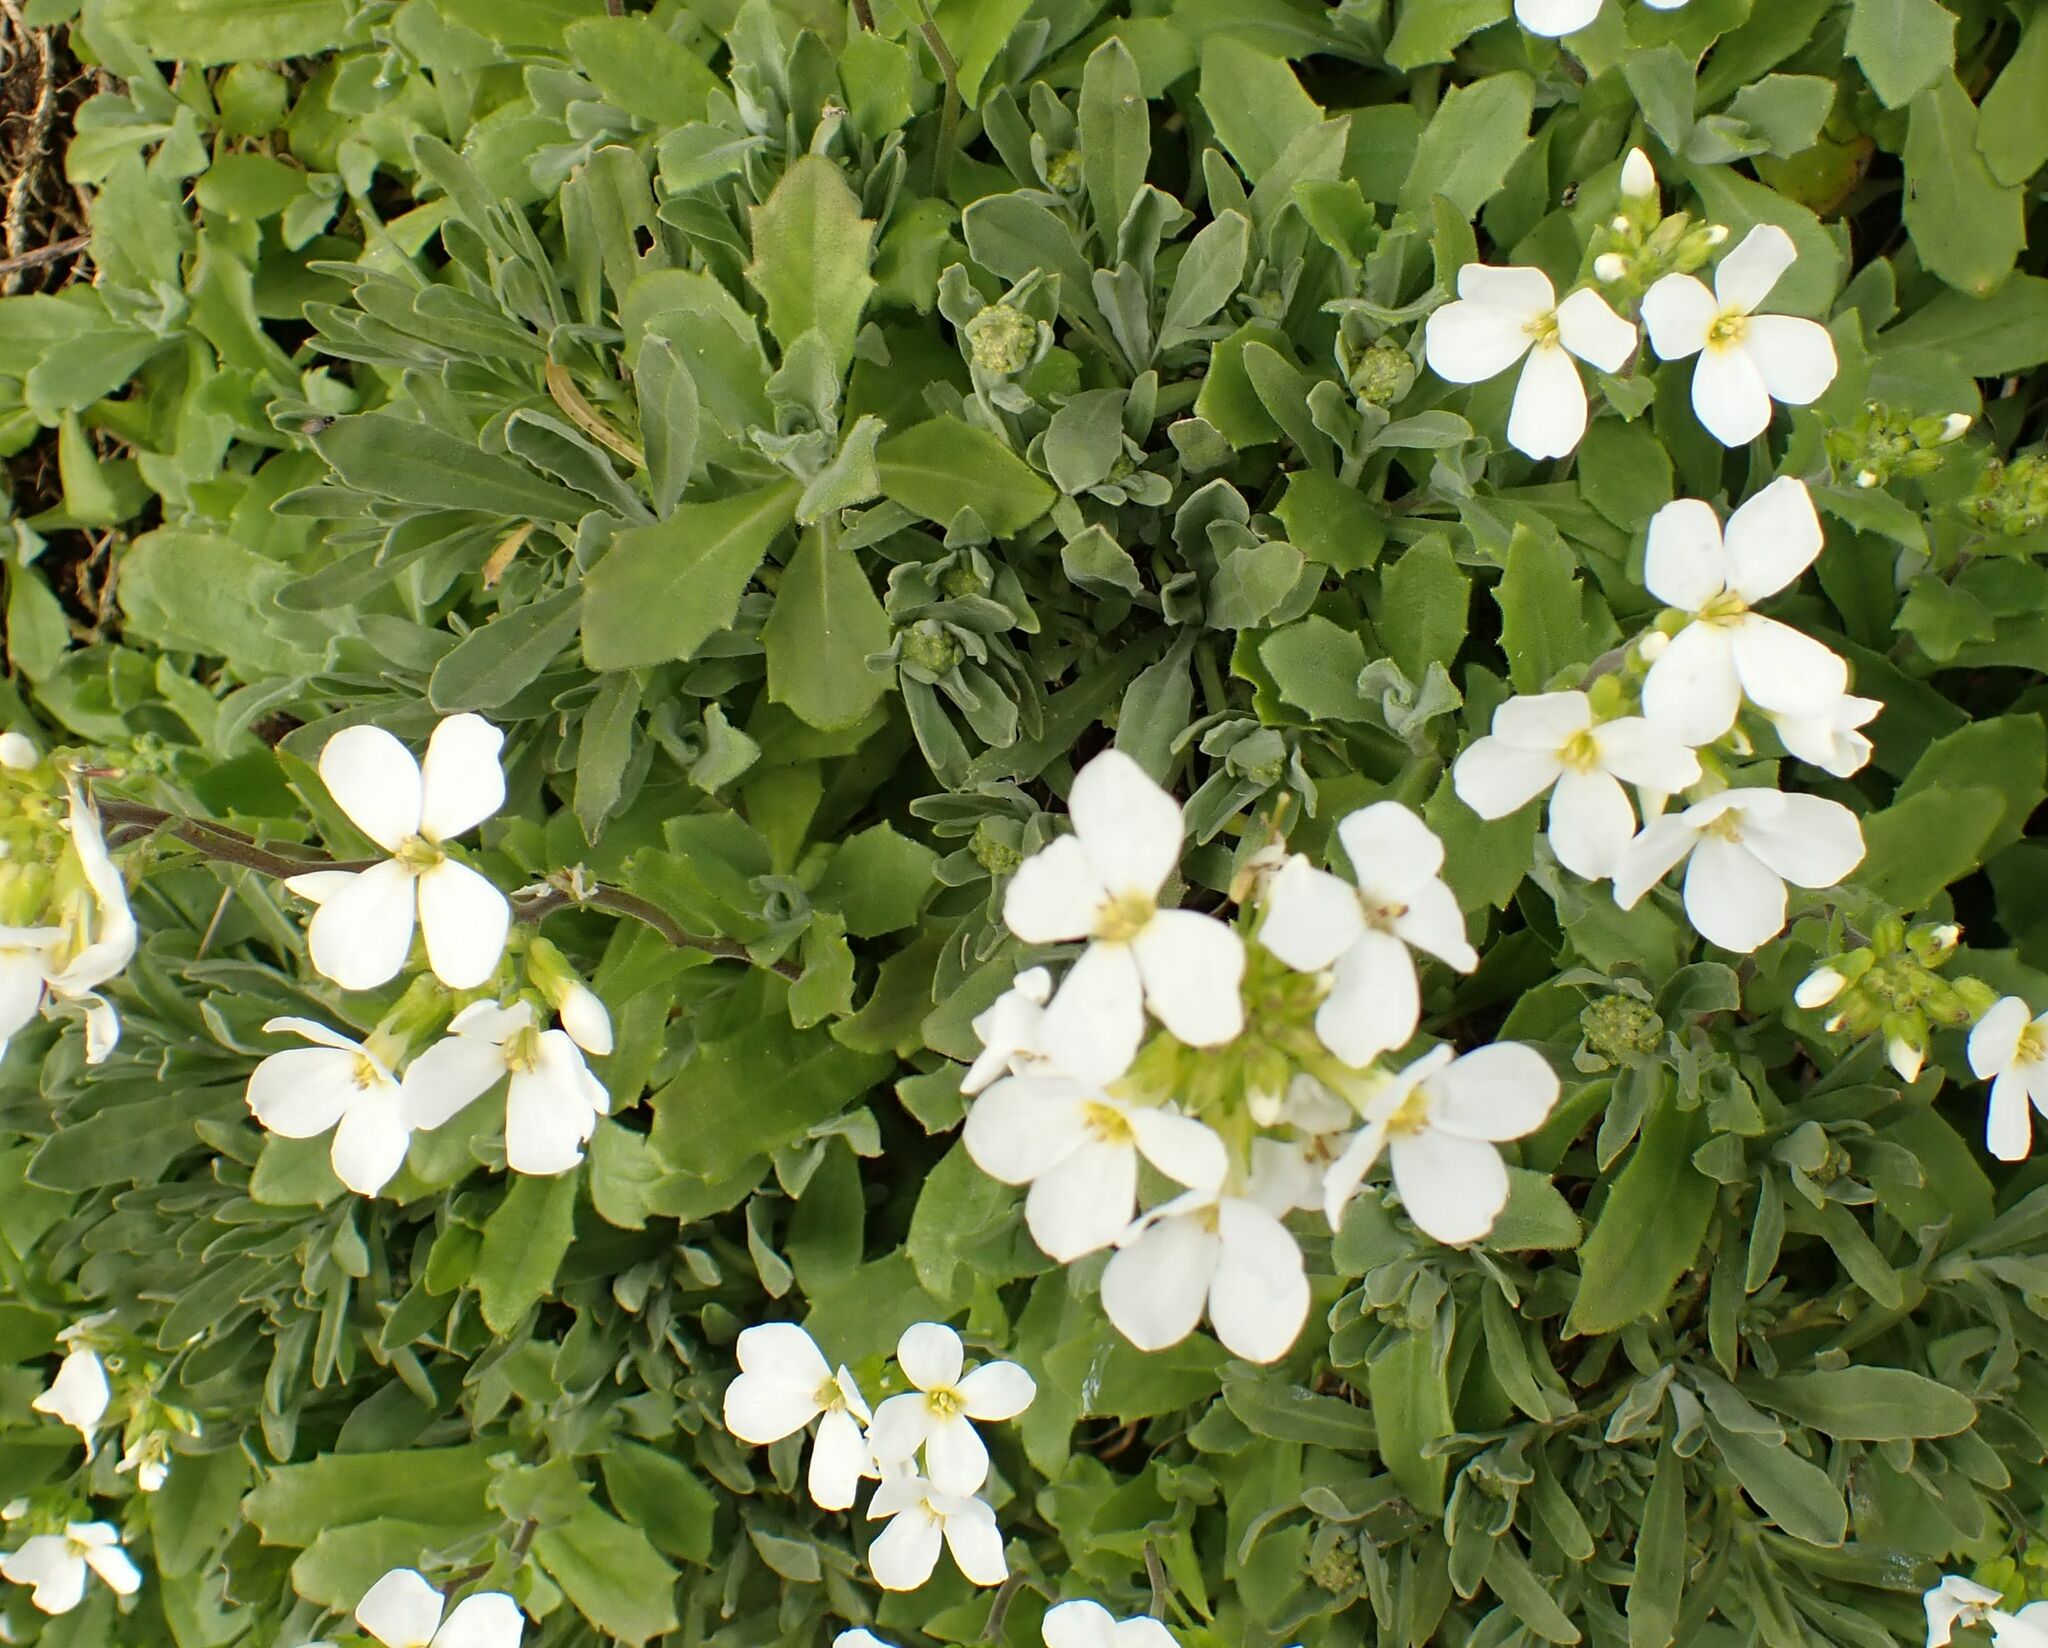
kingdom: Plantae
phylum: Tracheophyta
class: Magnoliopsida
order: Brassicales
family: Brassicaceae
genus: Arabis
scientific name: Arabis caucasica
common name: Gray rockcress
